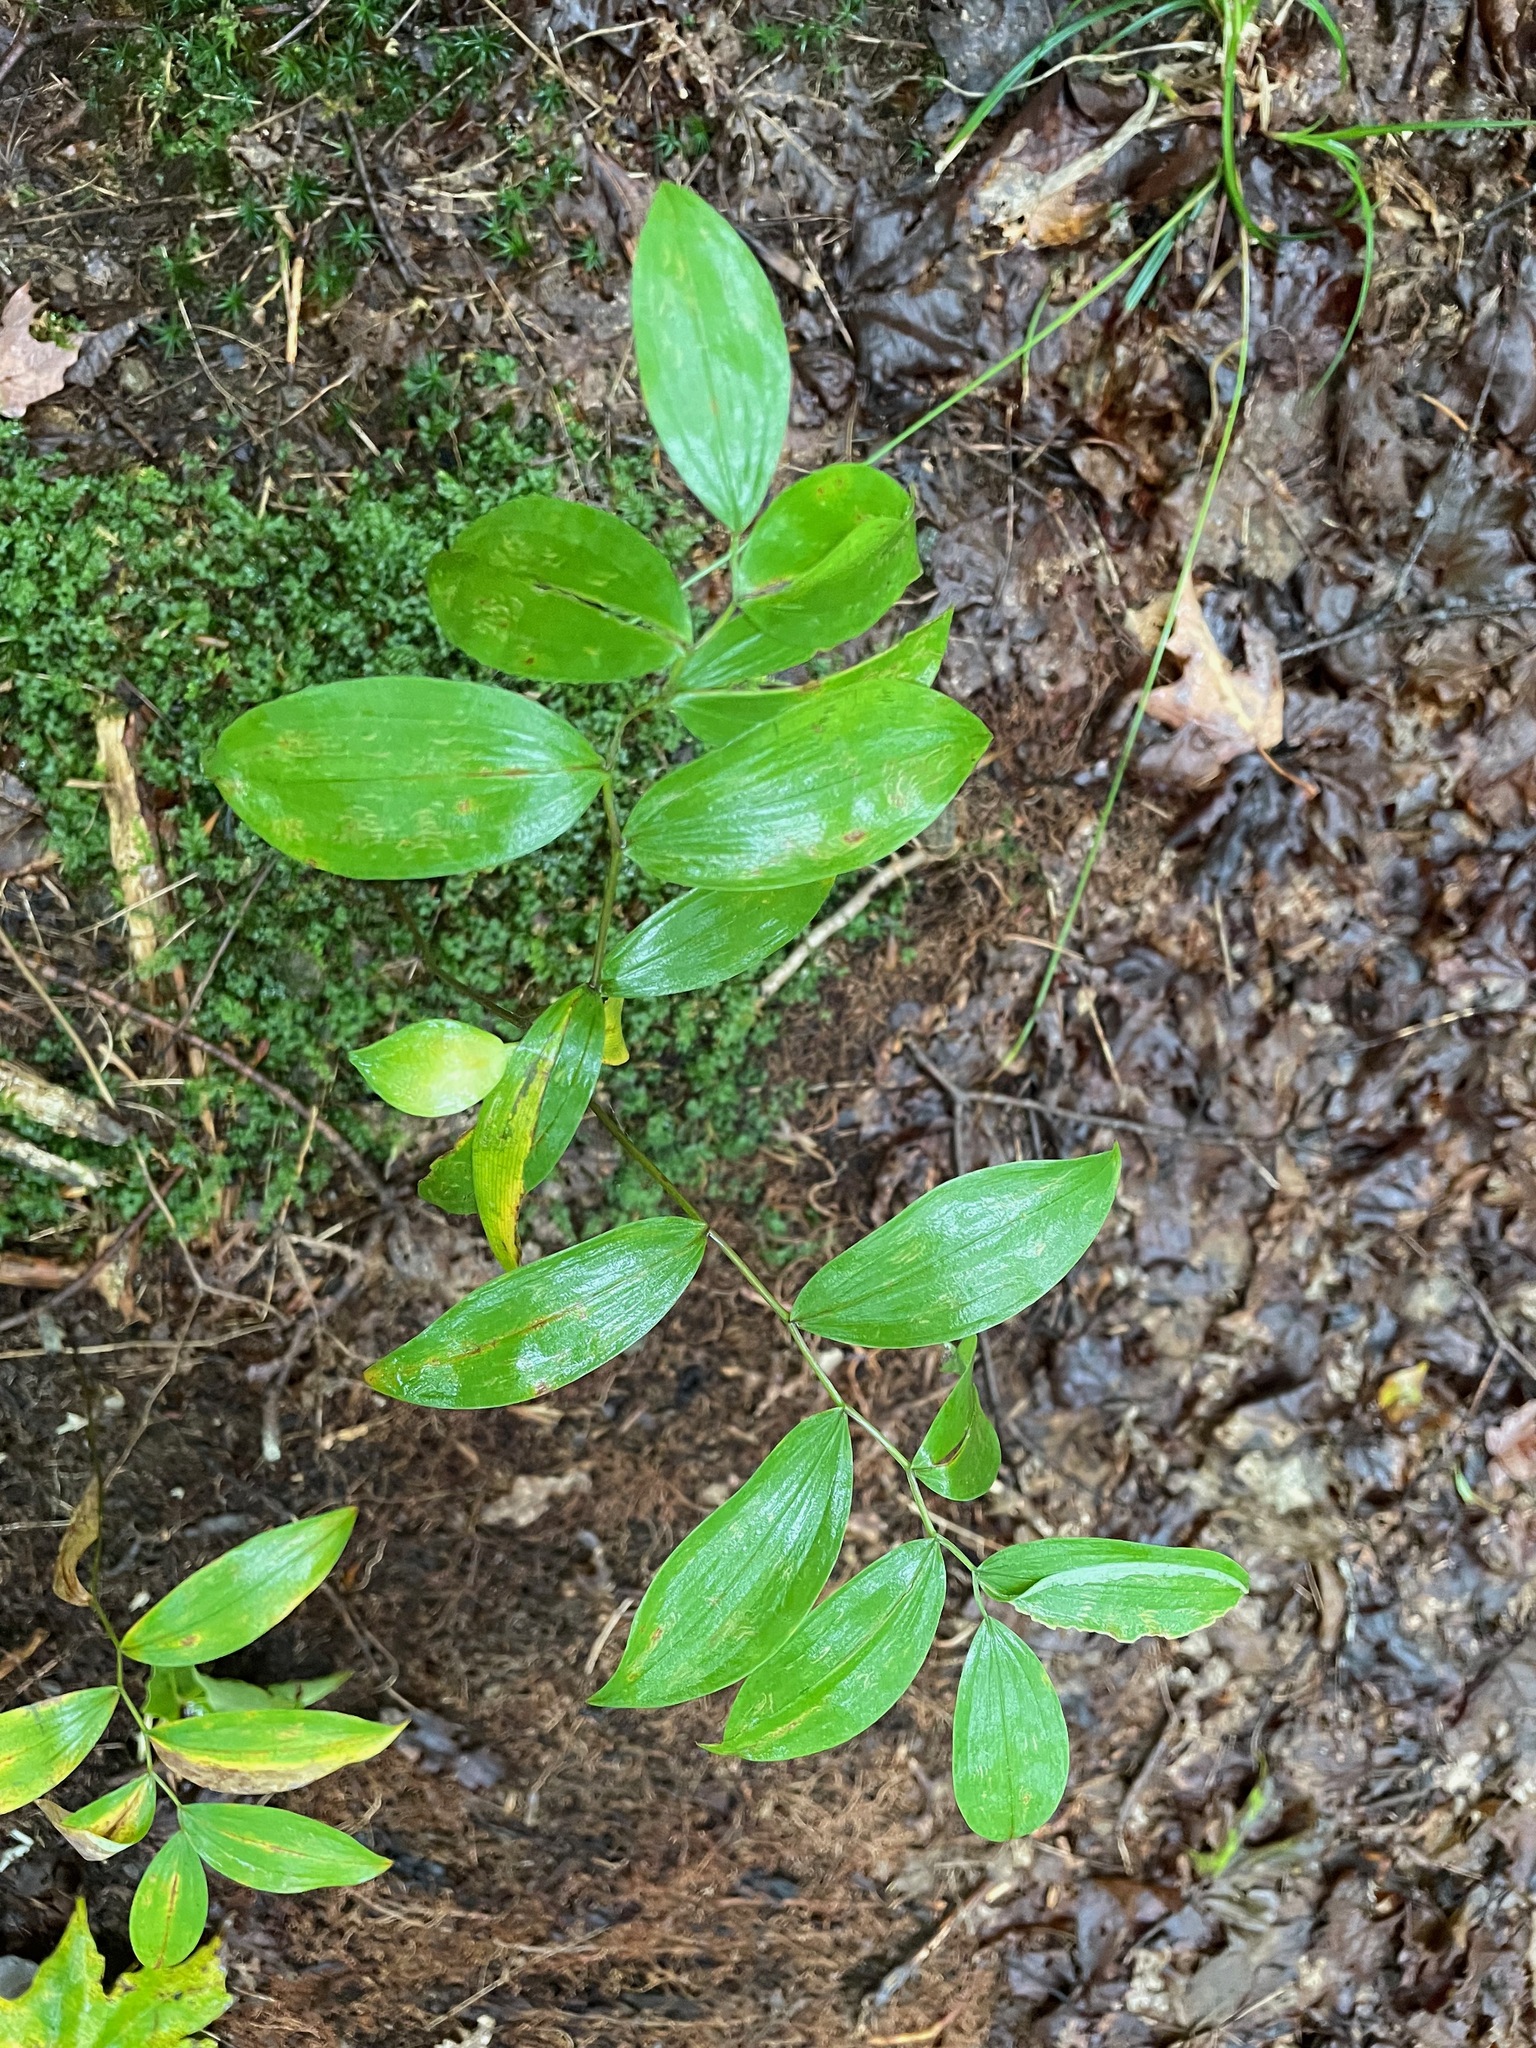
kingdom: Plantae
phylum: Tracheophyta
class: Liliopsida
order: Liliales
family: Colchicaceae
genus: Uvularia
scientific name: Uvularia sessilifolia
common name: Straw-lily
